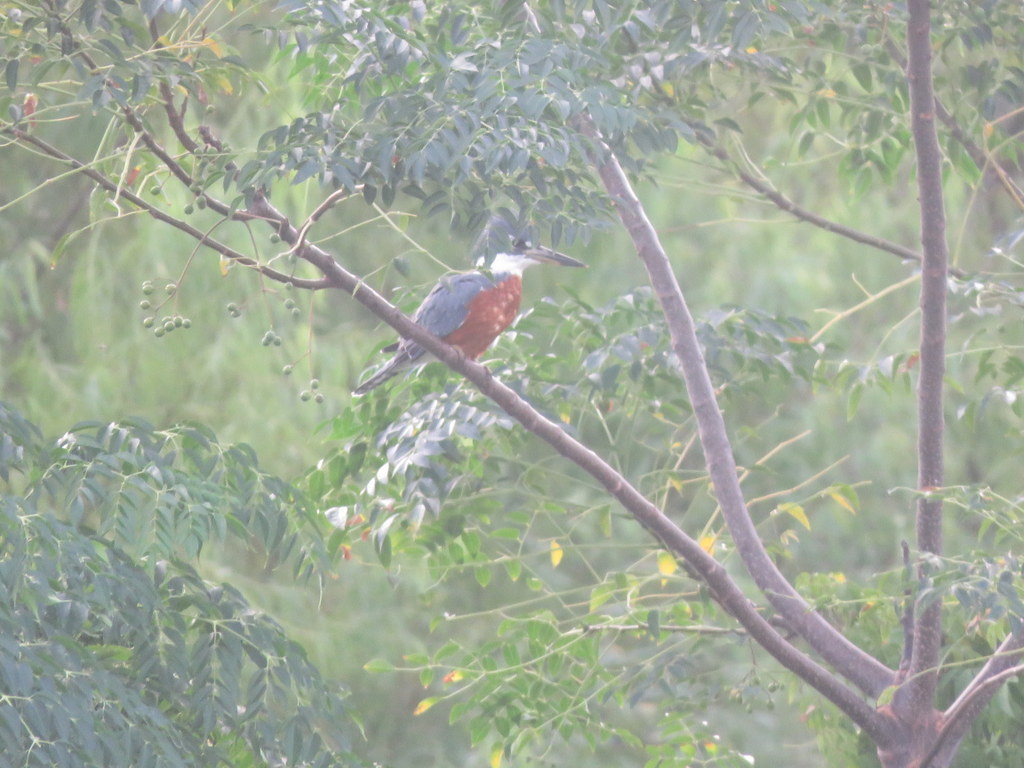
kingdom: Animalia
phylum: Chordata
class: Aves
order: Coraciiformes
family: Alcedinidae
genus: Megaceryle
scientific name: Megaceryle torquata
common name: Ringed kingfisher
